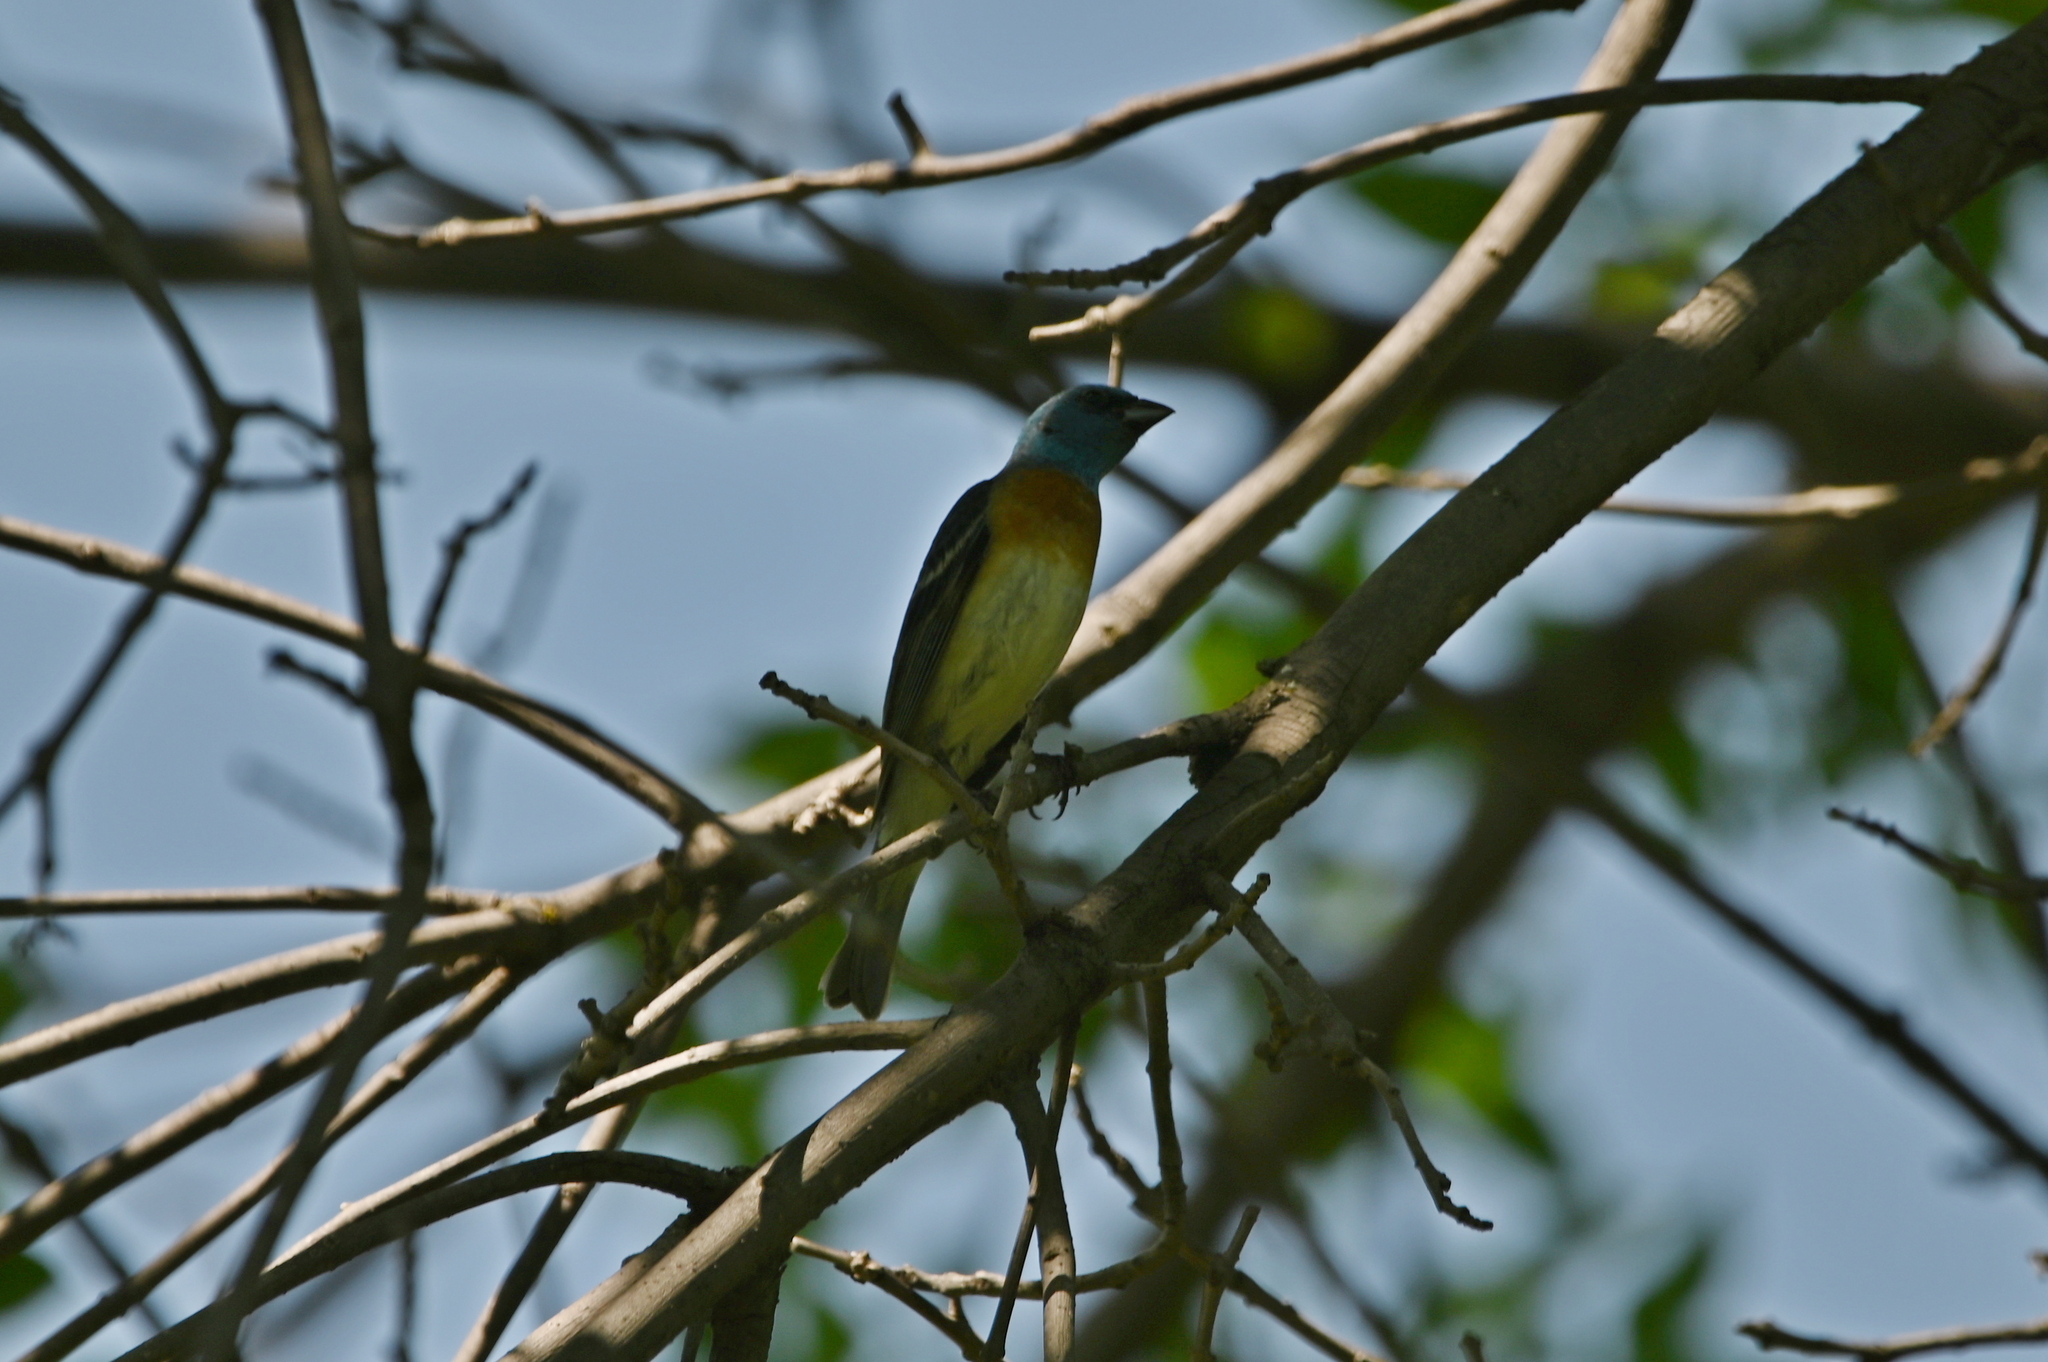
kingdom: Animalia
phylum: Chordata
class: Aves
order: Passeriformes
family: Cardinalidae
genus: Passerina
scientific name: Passerina amoena
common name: Lazuli bunting
